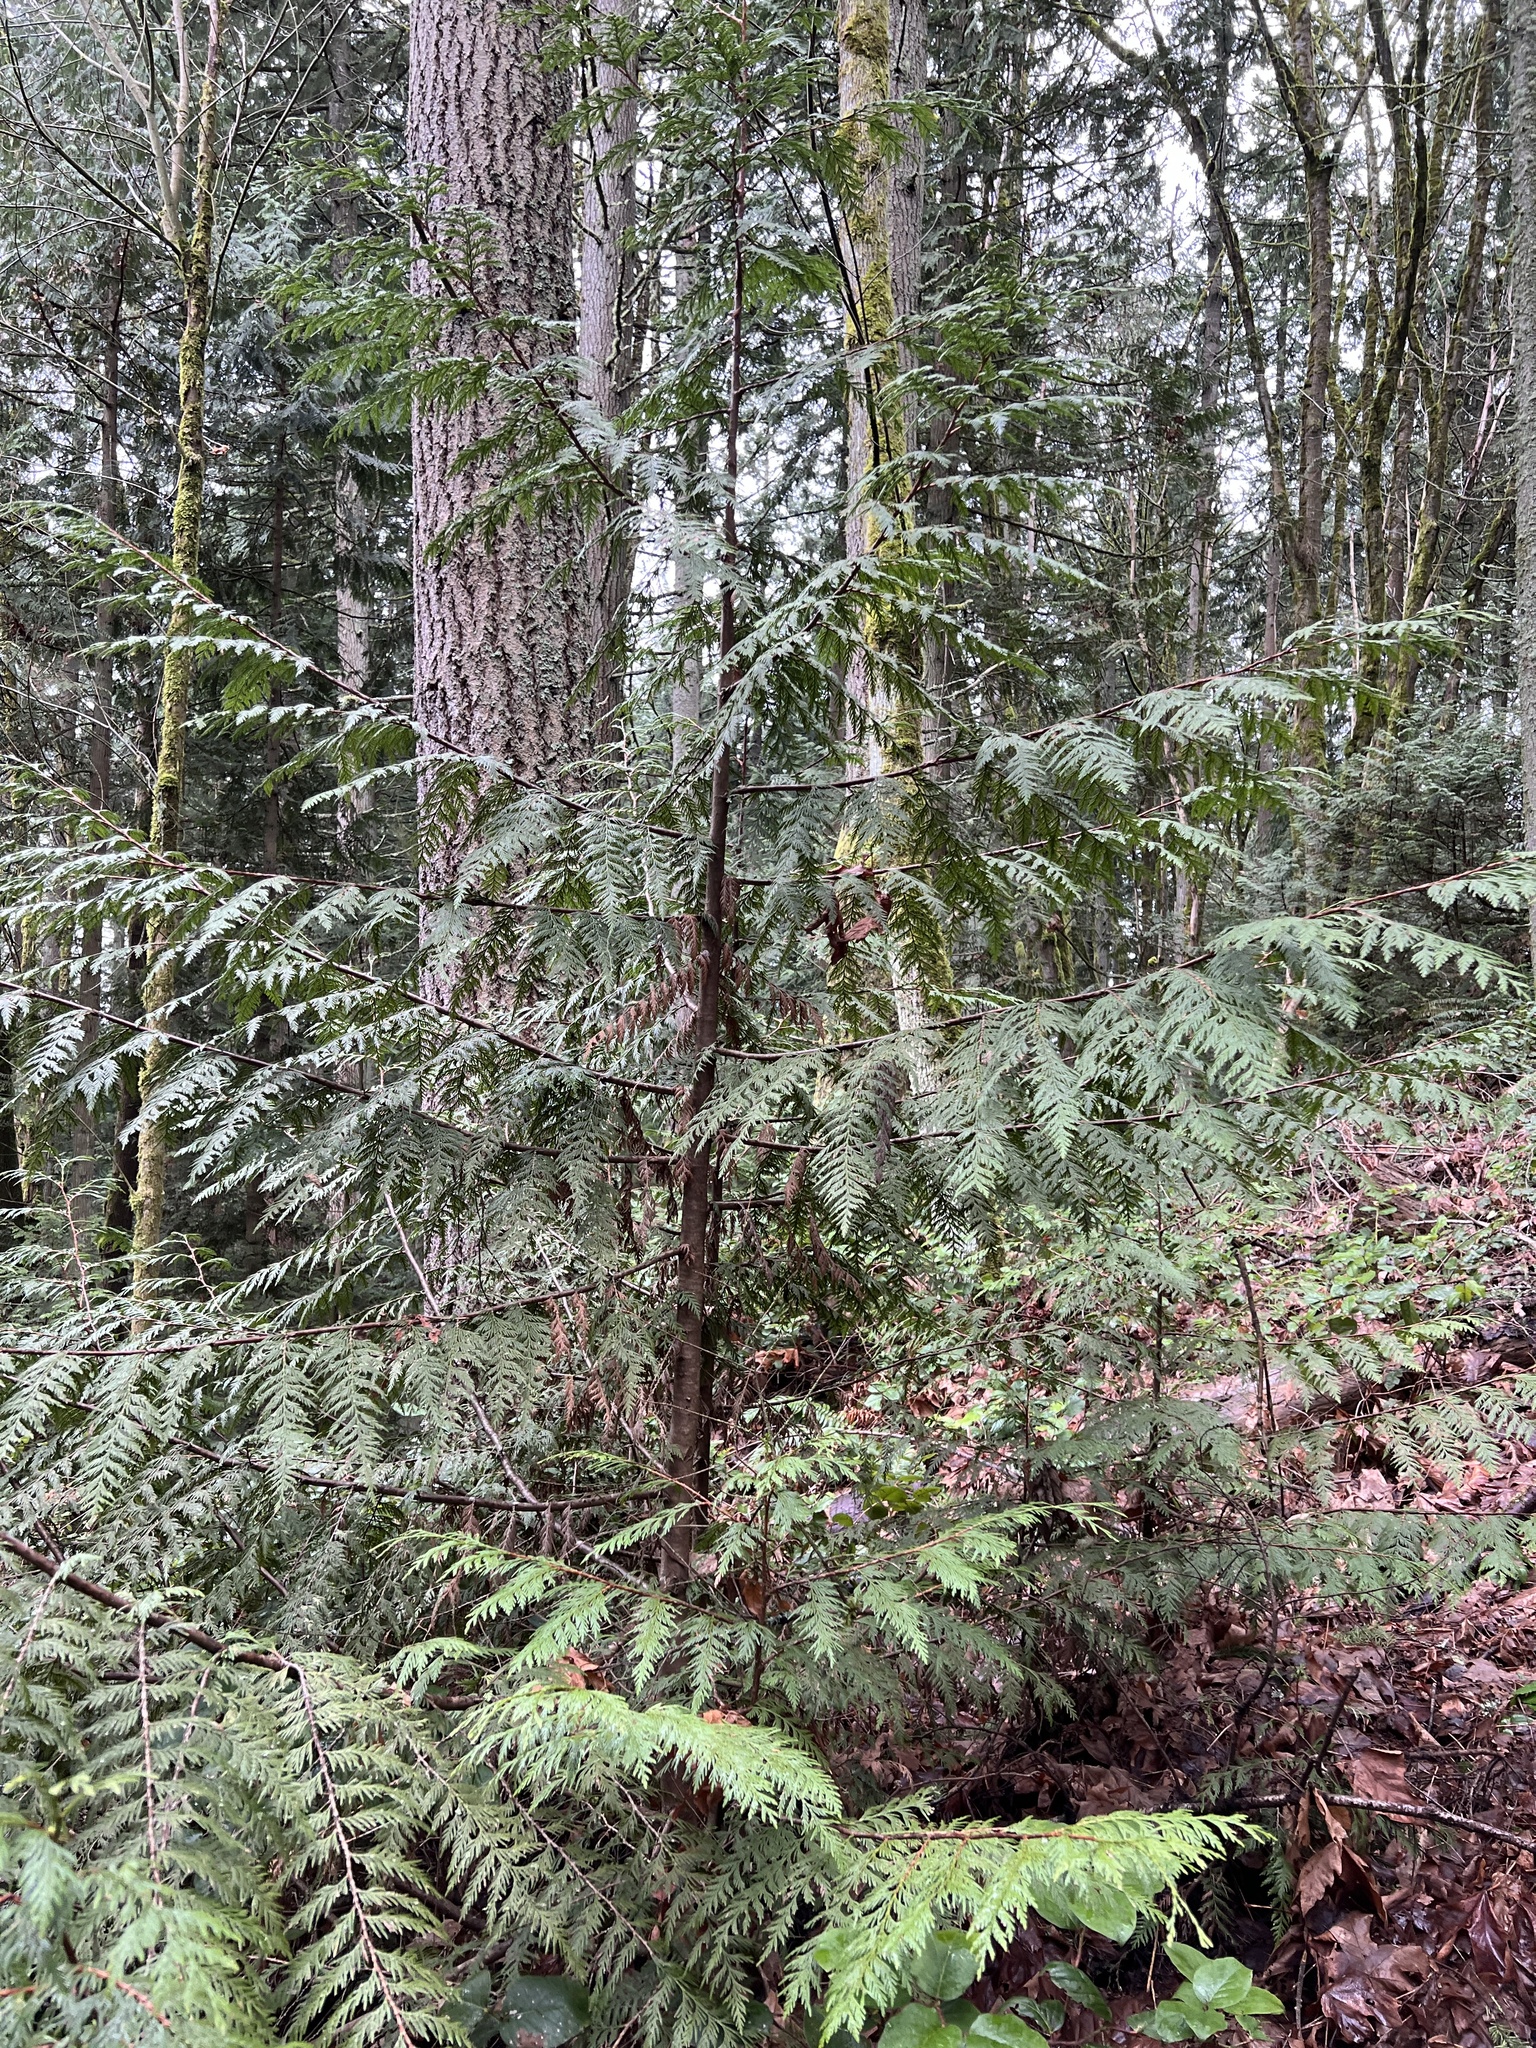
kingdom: Plantae
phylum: Tracheophyta
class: Pinopsida
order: Pinales
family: Cupressaceae
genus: Thuja
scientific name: Thuja plicata
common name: Western red-cedar
